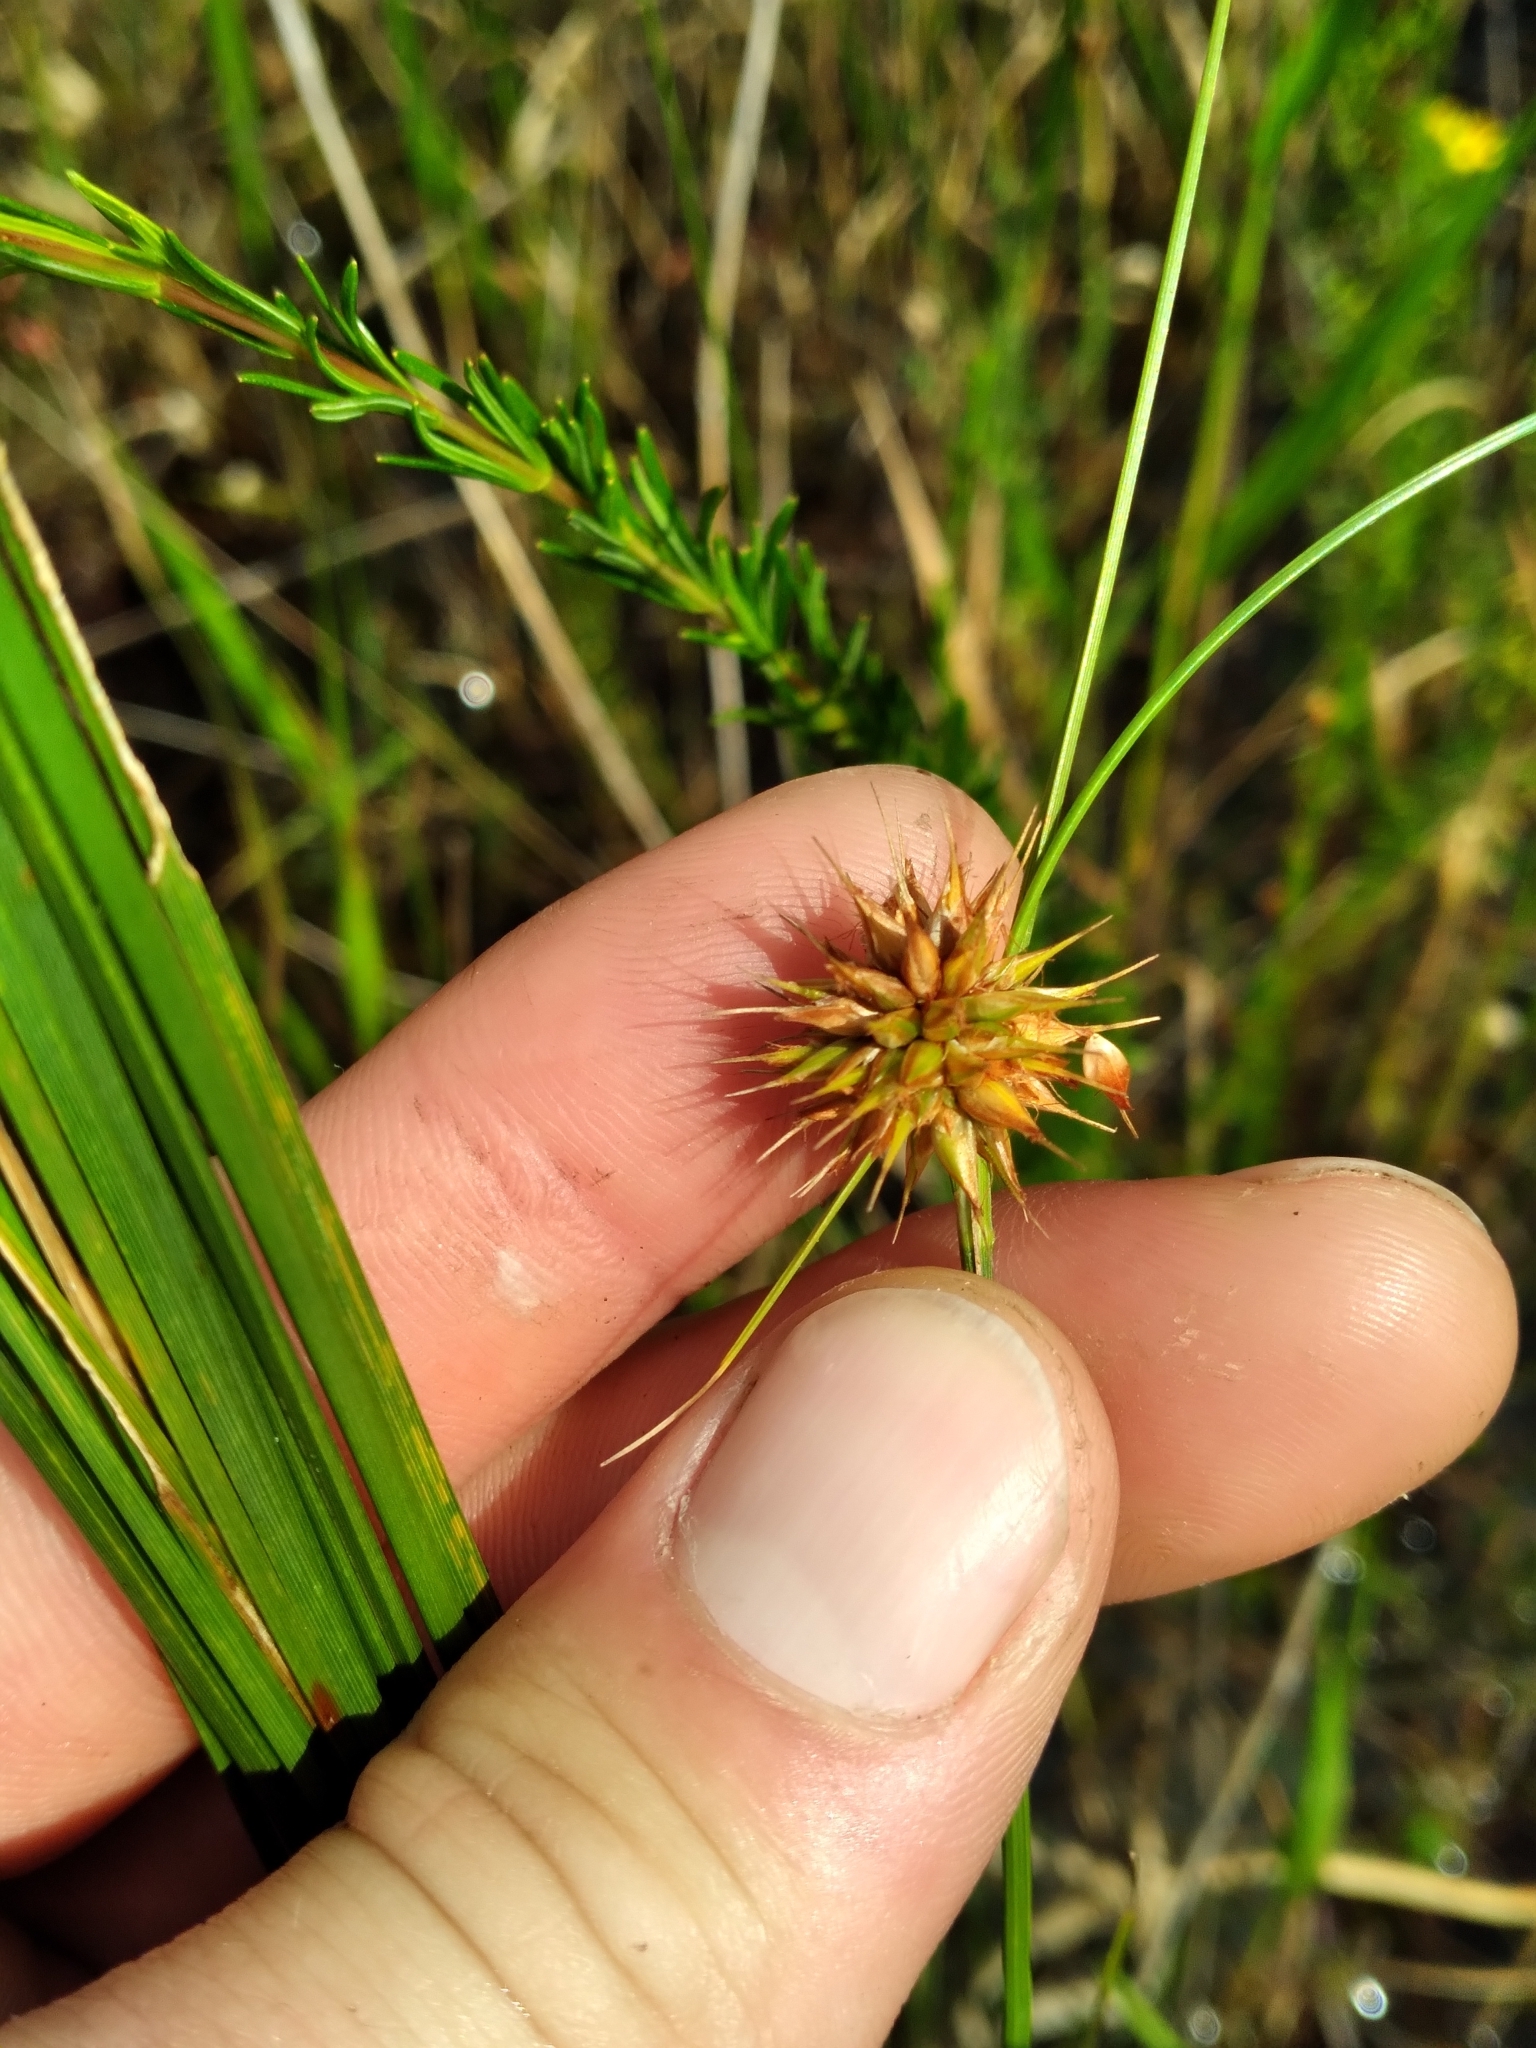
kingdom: Plantae
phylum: Tracheophyta
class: Liliopsida
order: Poales
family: Cyperaceae
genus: Rhynchospora
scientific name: Rhynchospora tracyi
